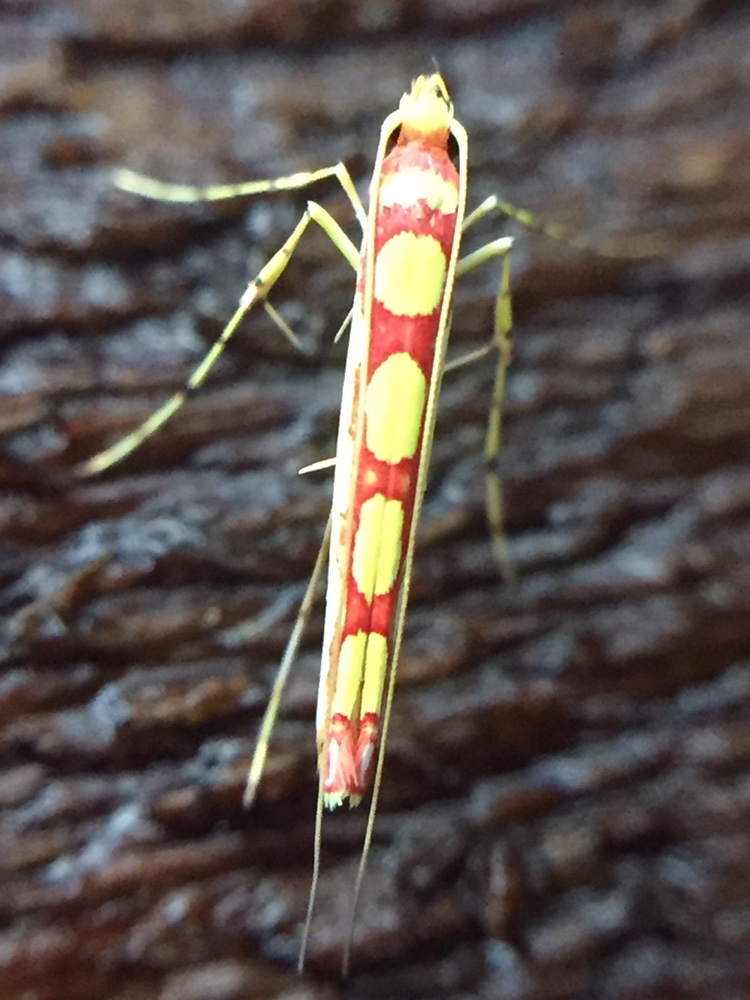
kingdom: Animalia
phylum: Arthropoda
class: Insecta
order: Lepidoptera
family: Gracillariidae
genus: Macarostola
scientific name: Macarostola miniella
